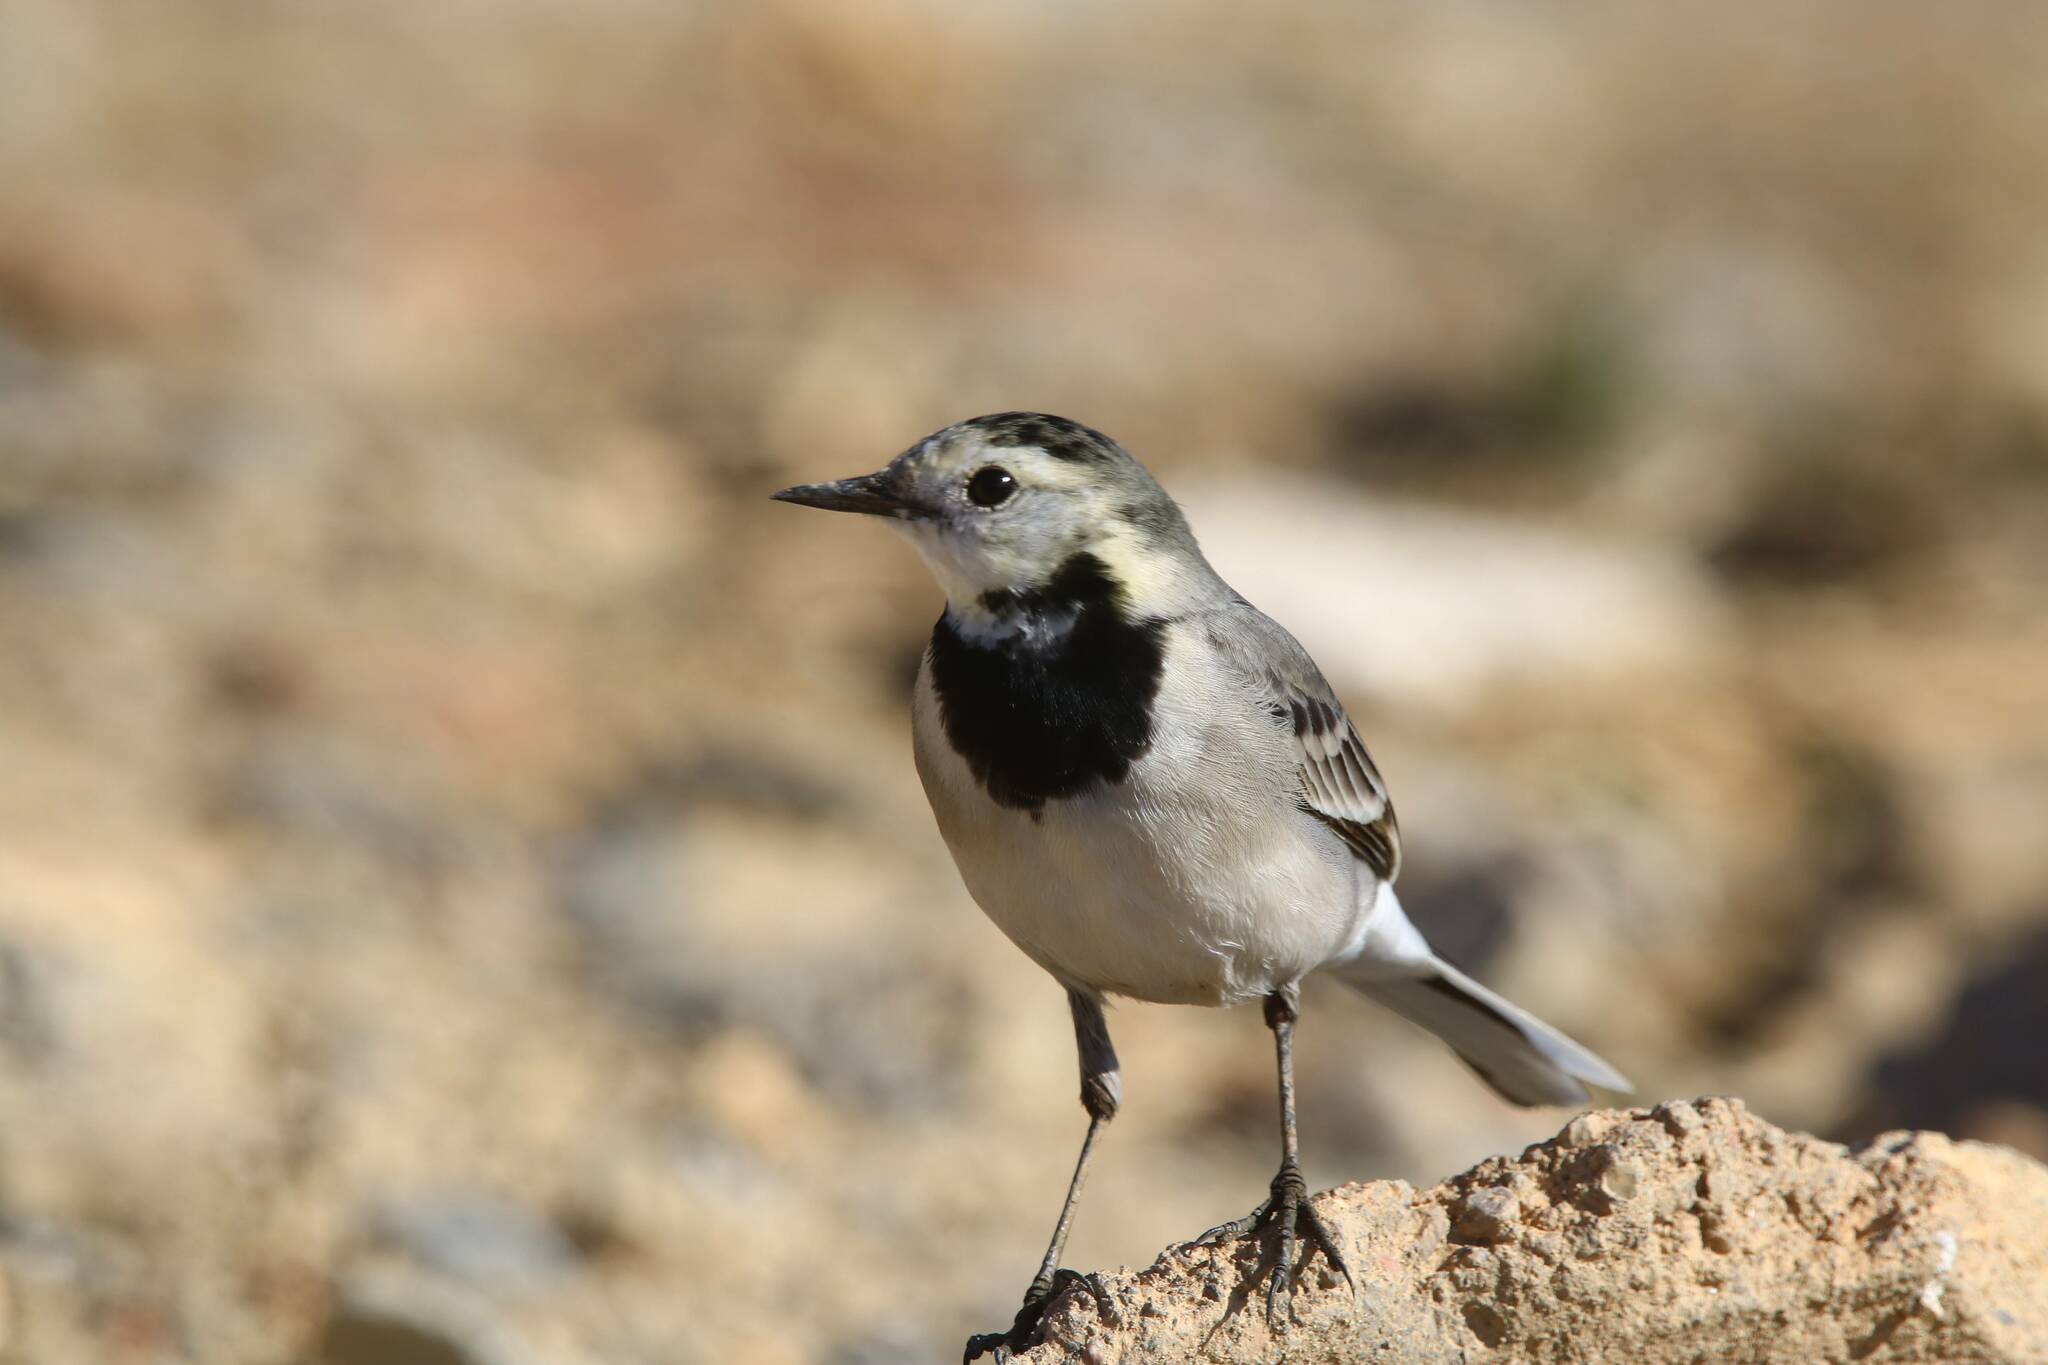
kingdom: Animalia
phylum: Chordata
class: Aves
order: Passeriformes
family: Motacillidae
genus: Motacilla
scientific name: Motacilla alba
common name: White wagtail
